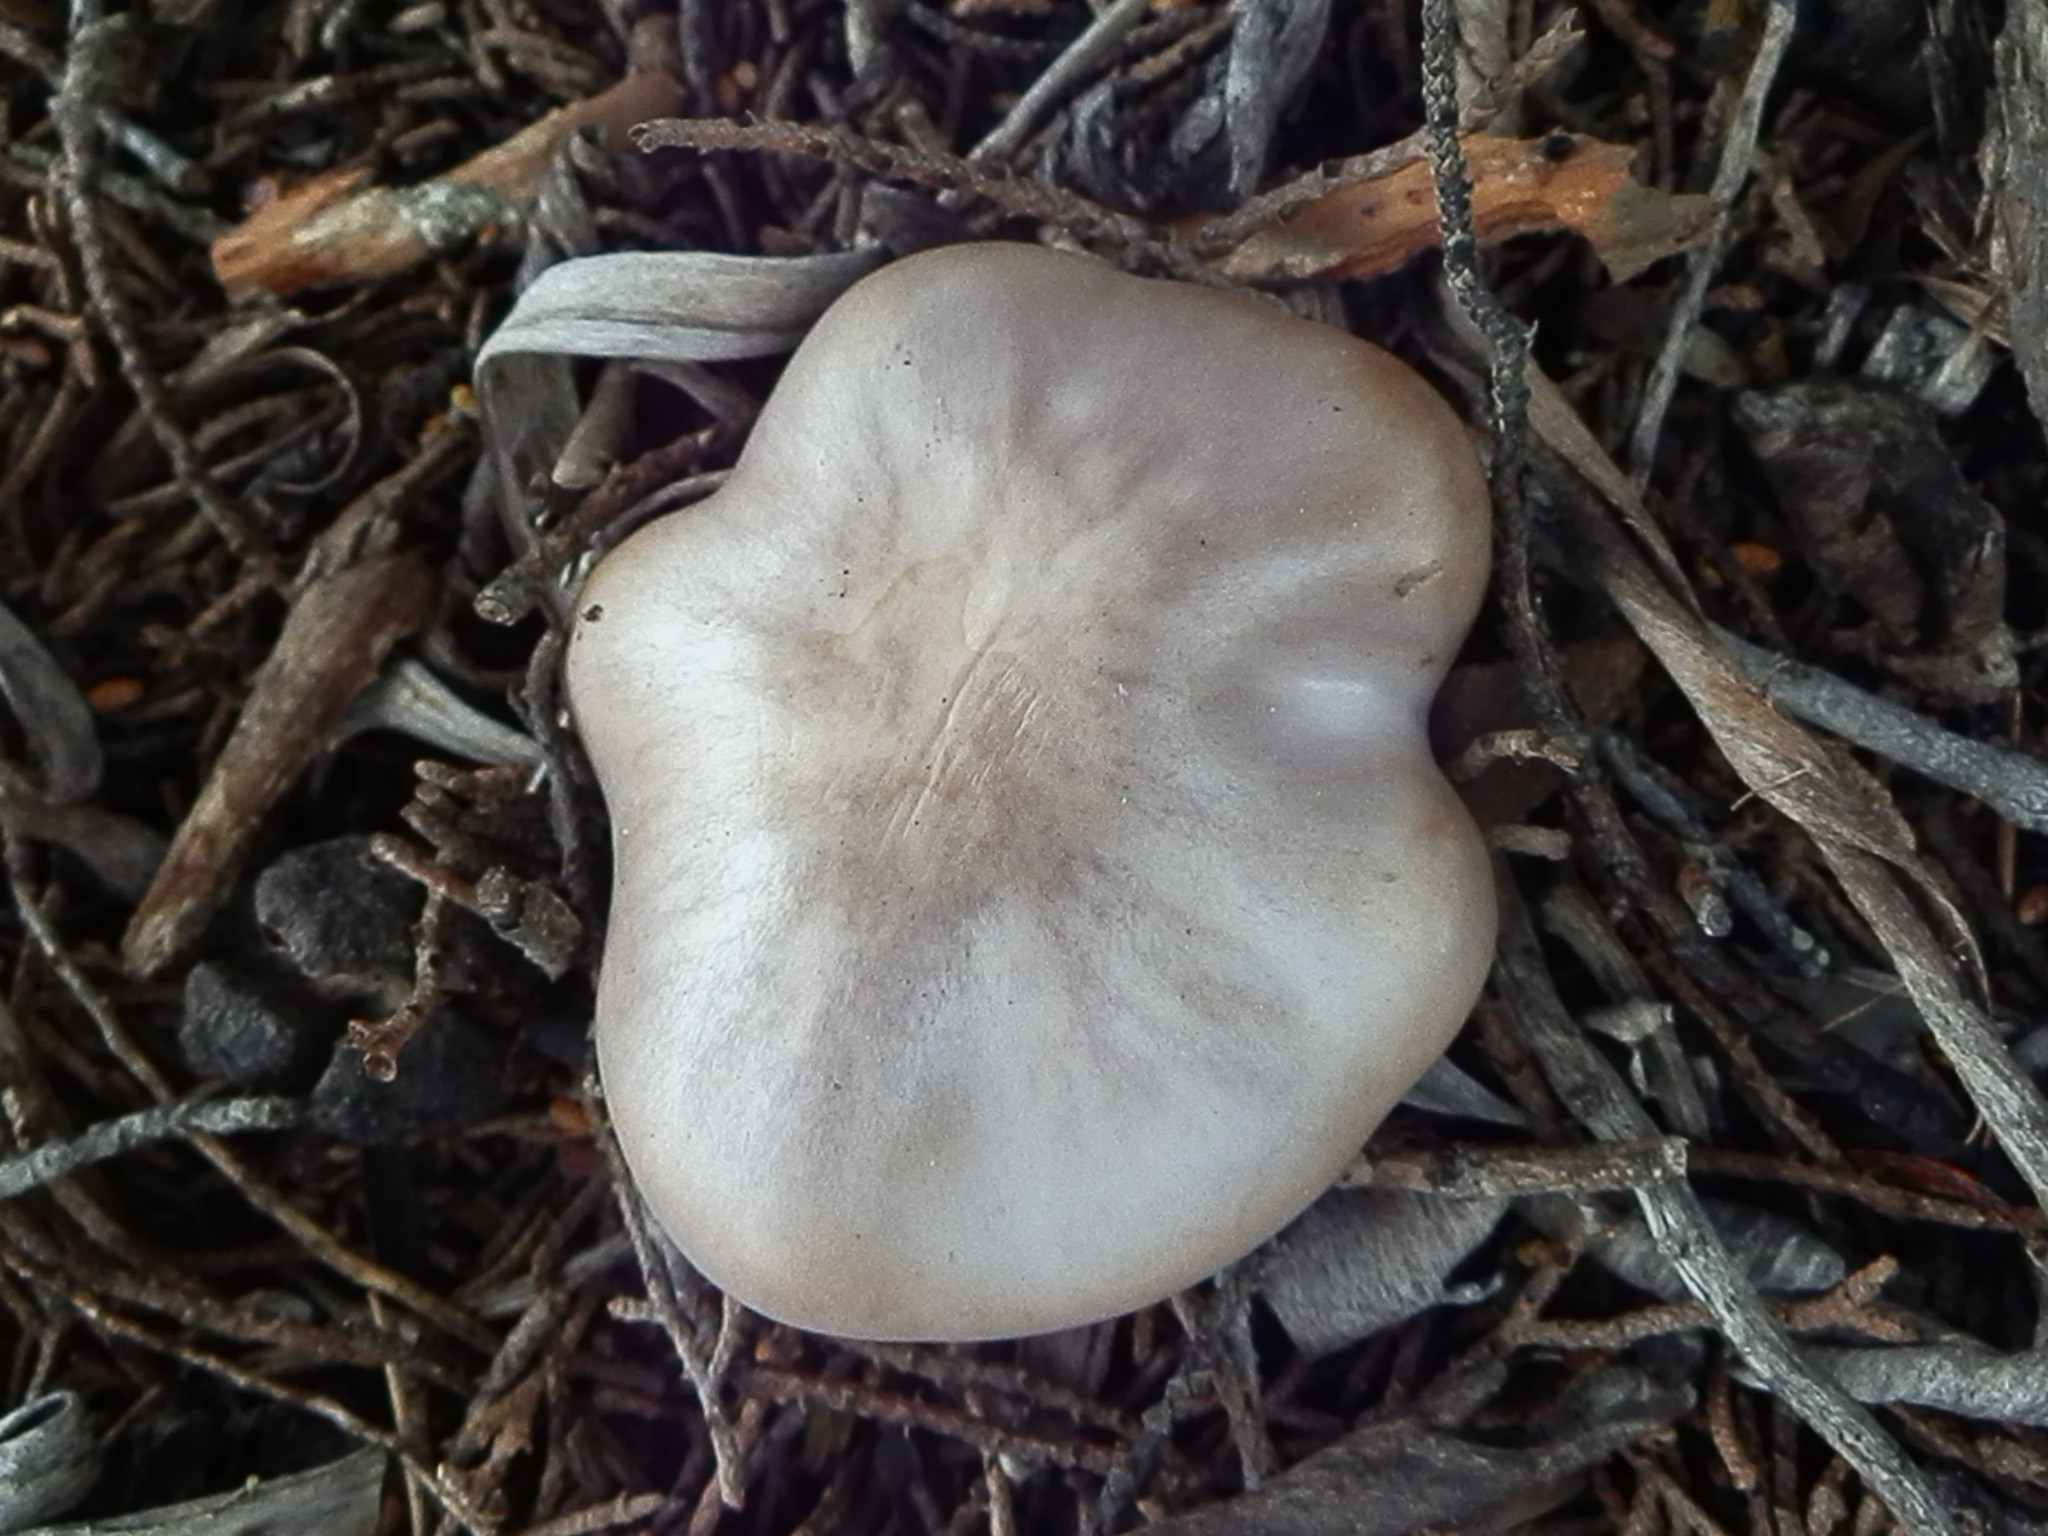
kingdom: Fungi
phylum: Basidiomycota
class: Agaricomycetes
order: Agaricales
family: Tricholomataceae
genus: Clitocybe
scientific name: Clitocybe violaceifolia
